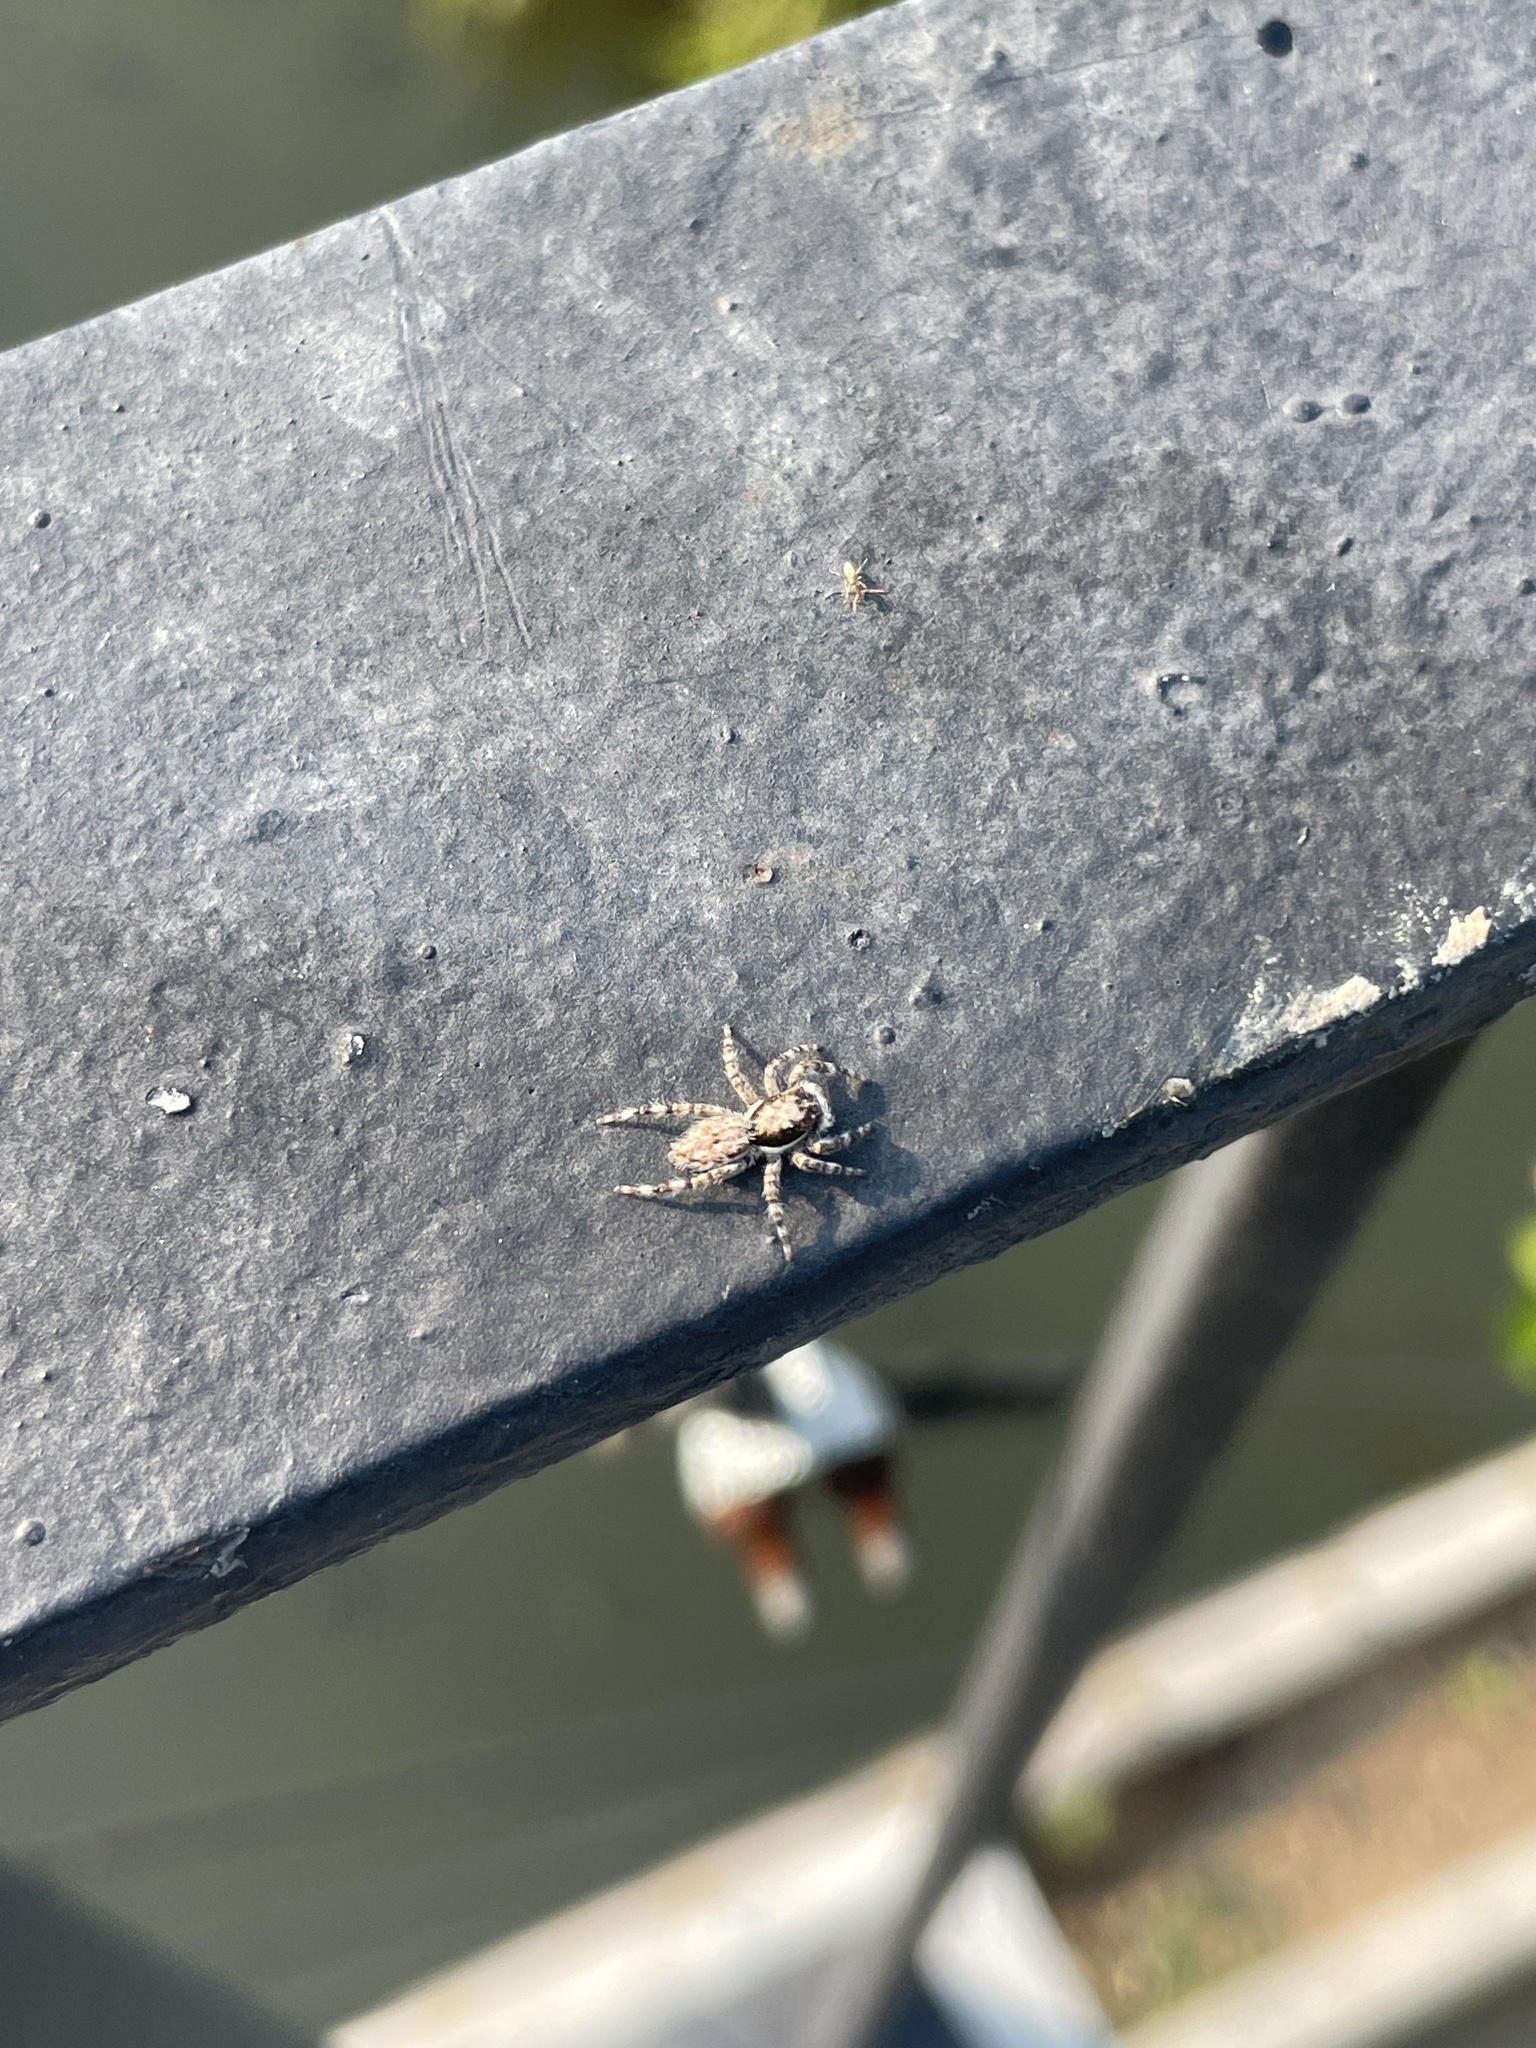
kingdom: Animalia
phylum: Arthropoda
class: Arachnida
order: Araneae
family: Salticidae
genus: Menemerus
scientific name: Menemerus bivittatus
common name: Gray wall jumper
